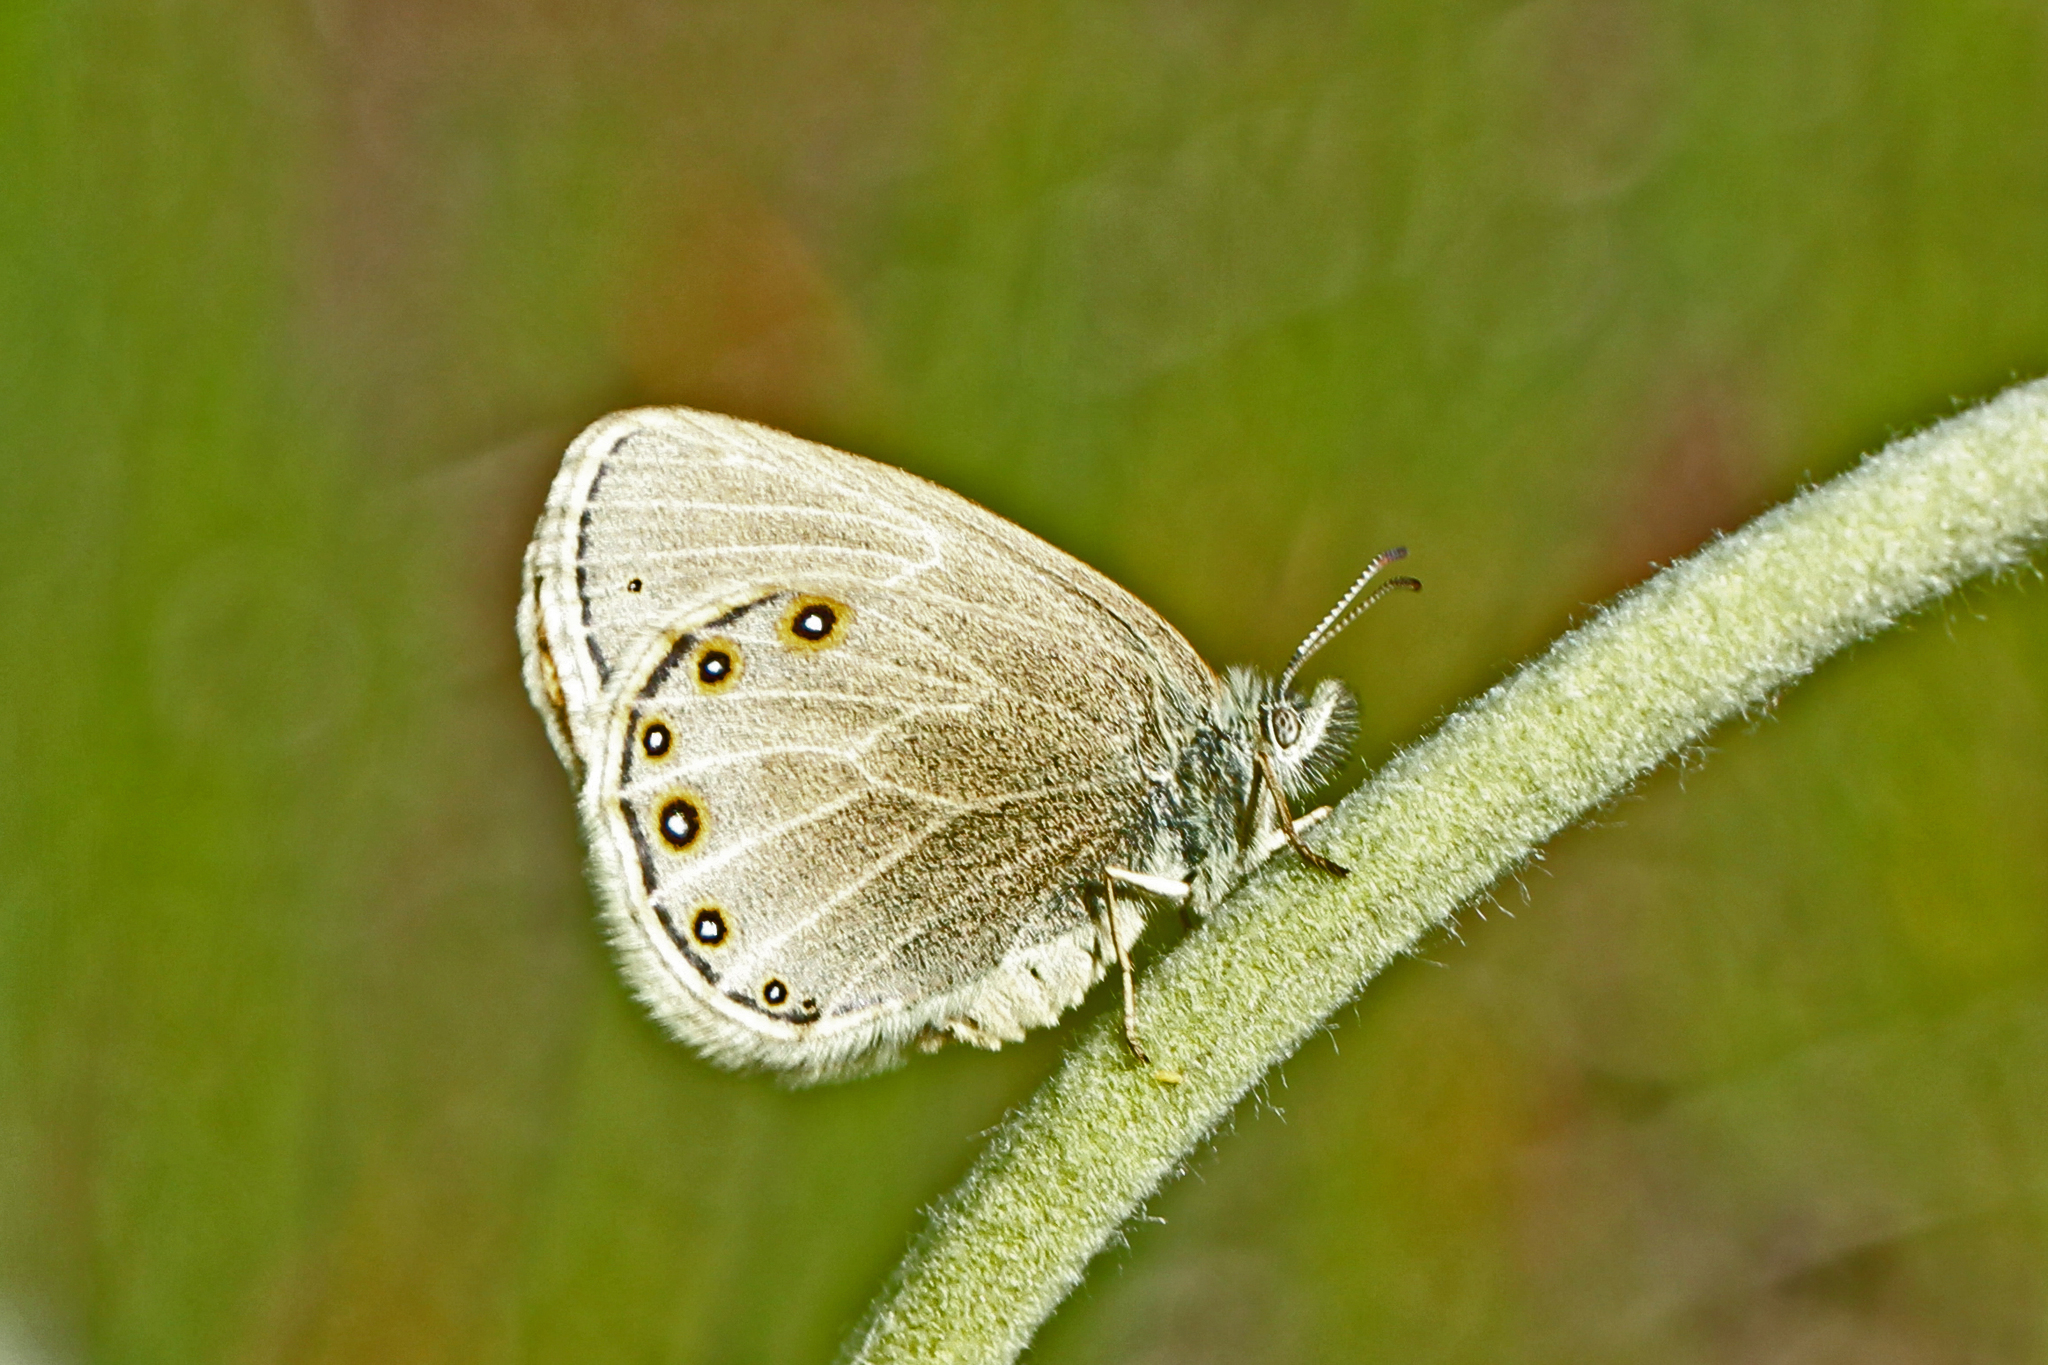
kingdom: Animalia
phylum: Arthropoda
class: Insecta
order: Lepidoptera
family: Nymphalidae
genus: Coenonympha
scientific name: Coenonympha haydeni
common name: Hayden's ringlet
